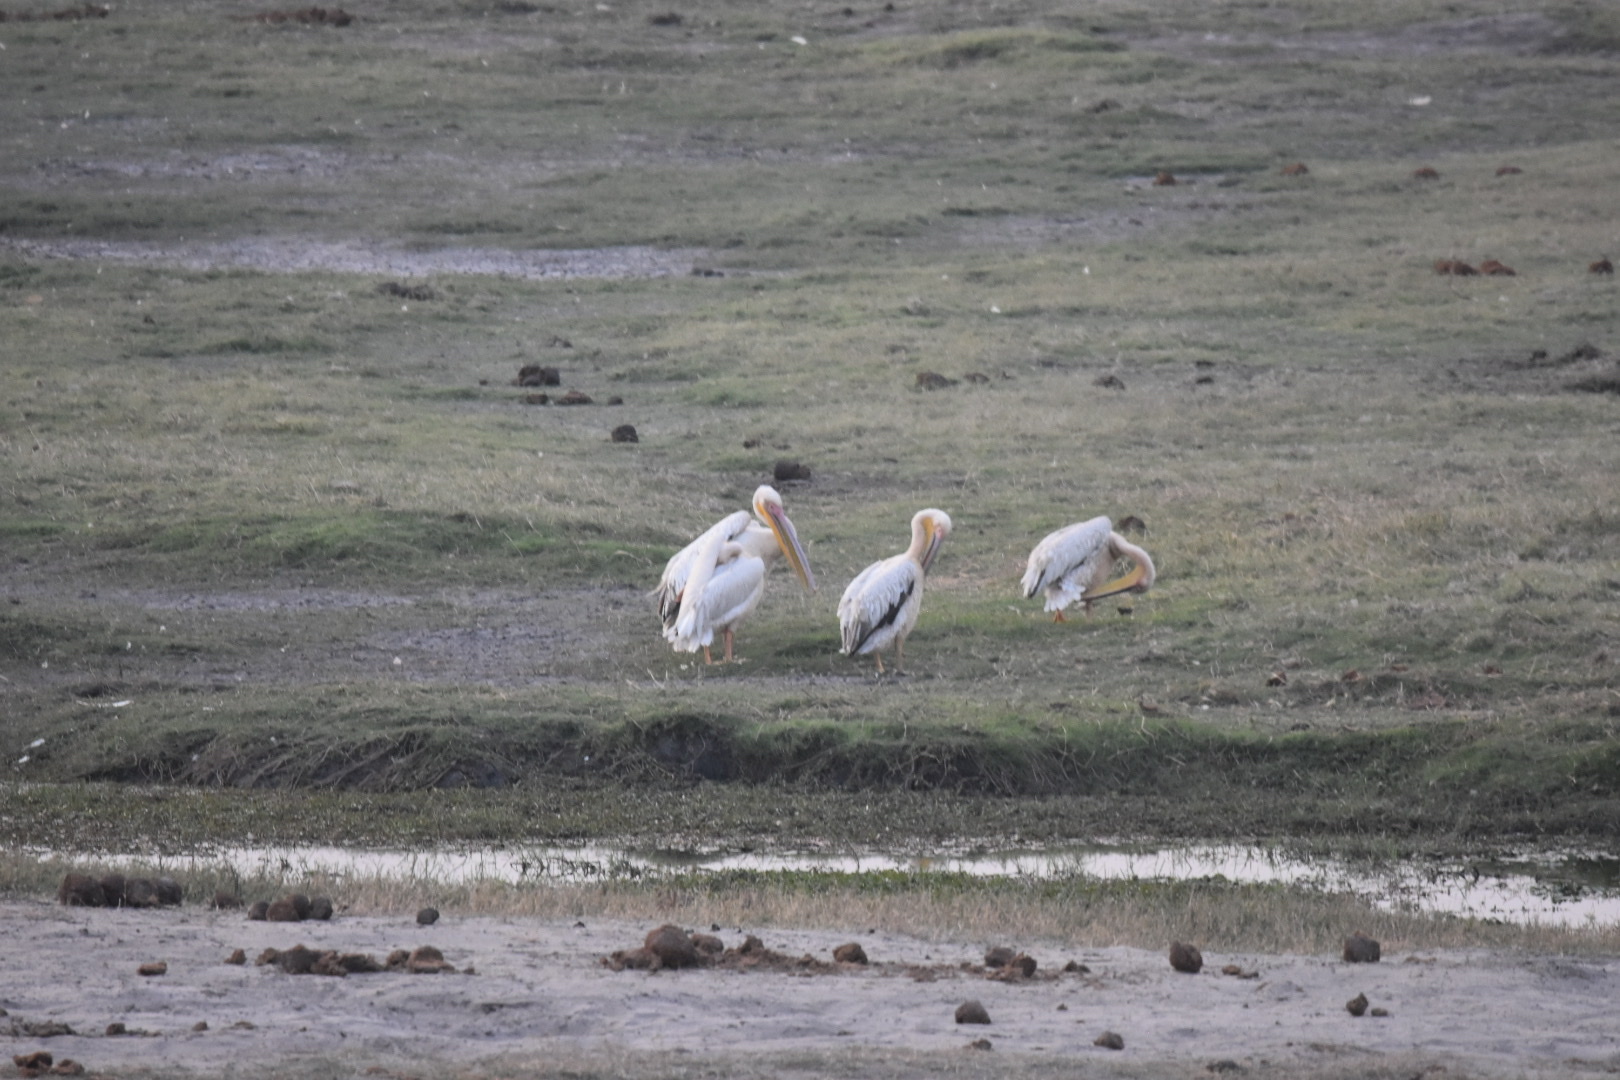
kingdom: Animalia
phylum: Chordata
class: Aves
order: Pelecaniformes
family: Pelecanidae
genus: Pelecanus
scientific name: Pelecanus onocrotalus
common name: Great white pelican
